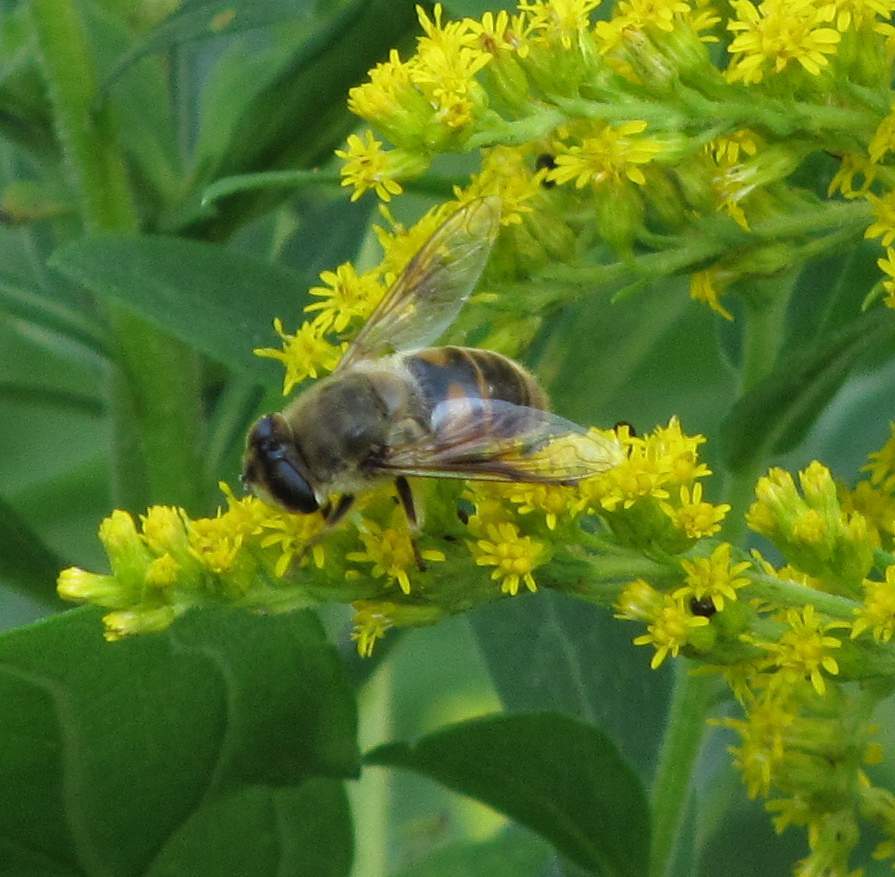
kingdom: Animalia
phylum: Arthropoda
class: Insecta
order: Diptera
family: Syrphidae
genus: Eristalis
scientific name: Eristalis tenax
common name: Drone fly
